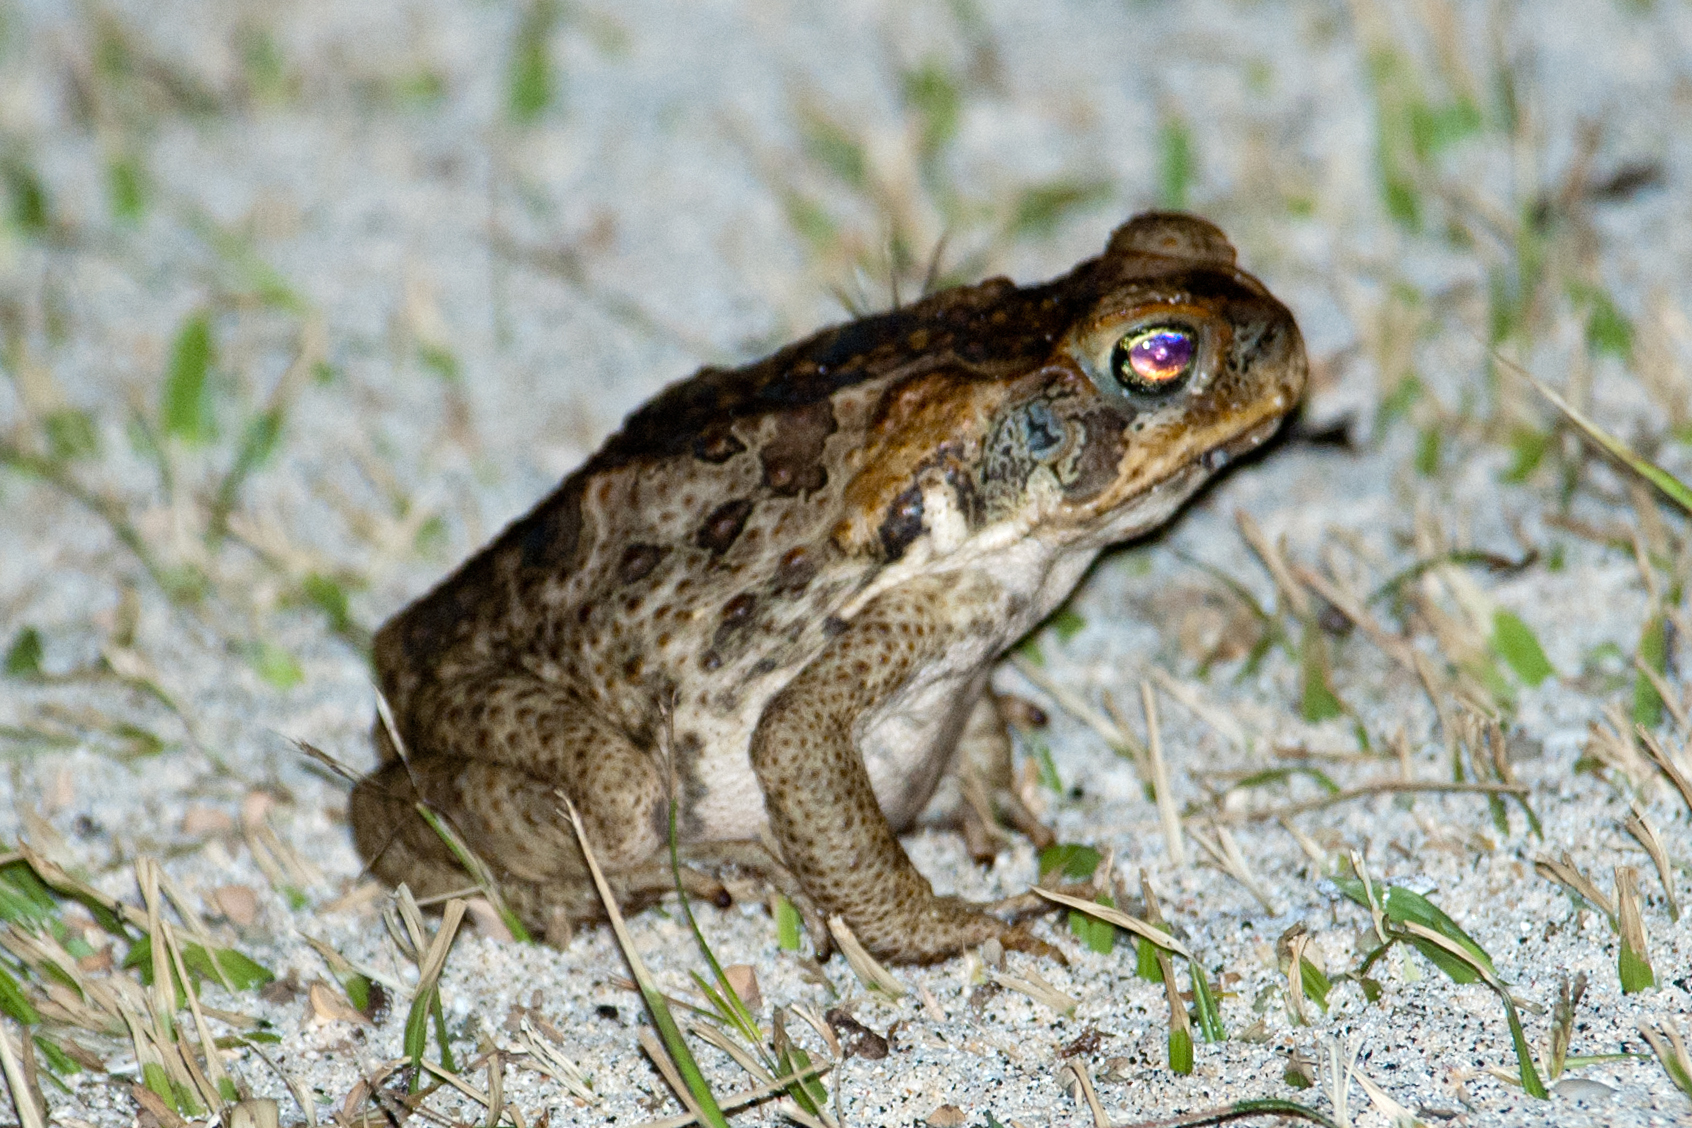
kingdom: Animalia
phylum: Chordata
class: Amphibia
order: Anura
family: Bufonidae
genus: Rhinella
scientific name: Rhinella marina
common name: Cane toad
